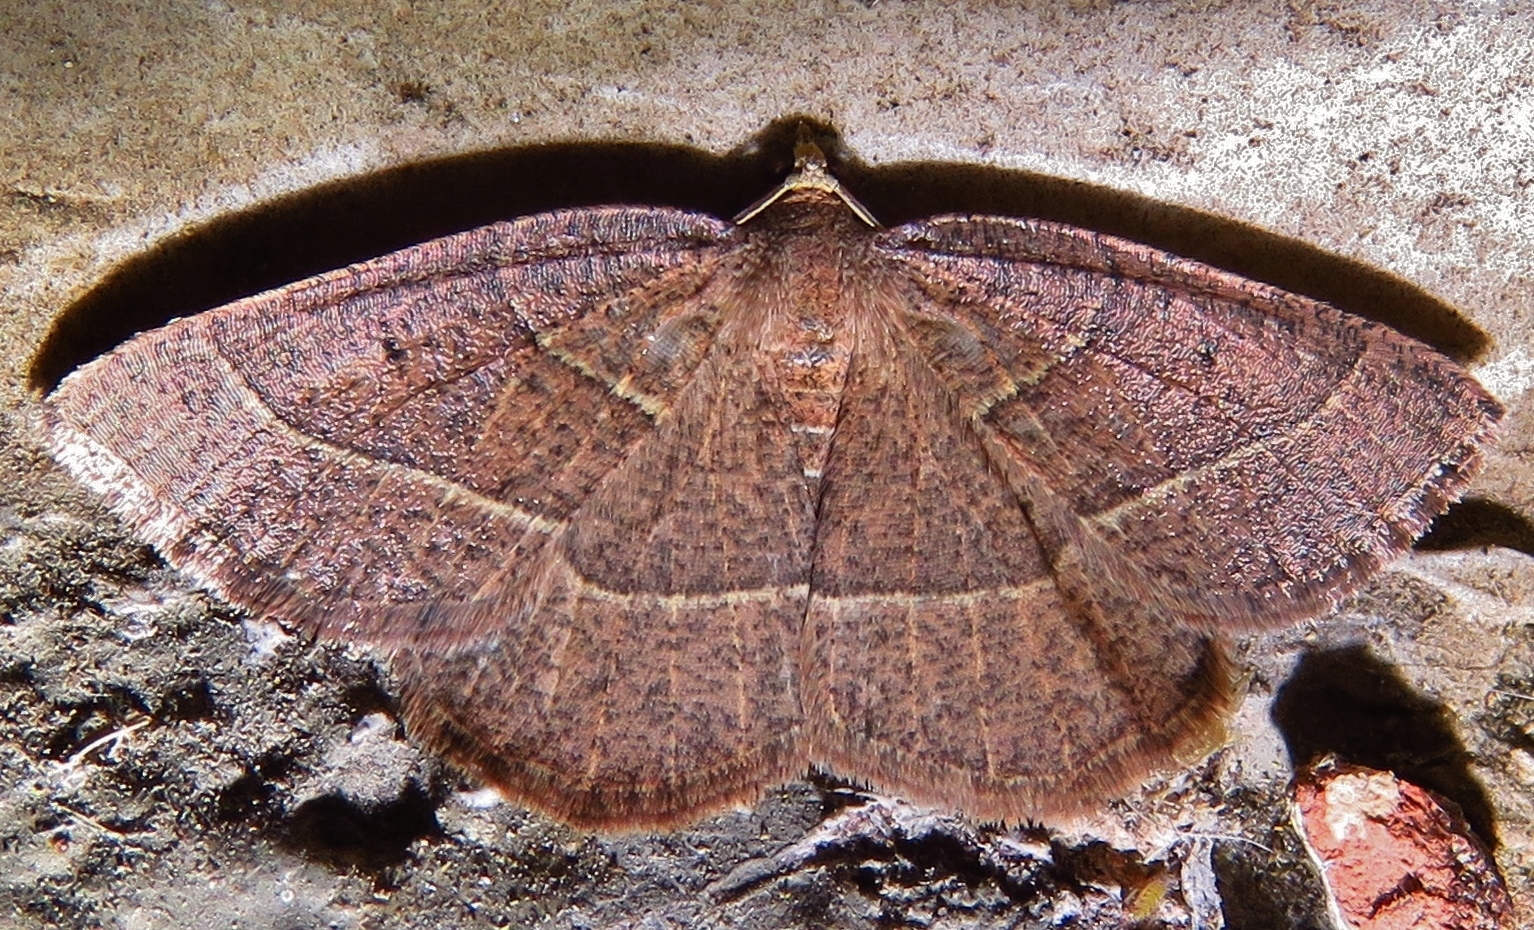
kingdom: Animalia
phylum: Arthropoda
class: Insecta
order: Lepidoptera
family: Geometridae
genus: Episemasia
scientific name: Episemasia cervinaria
